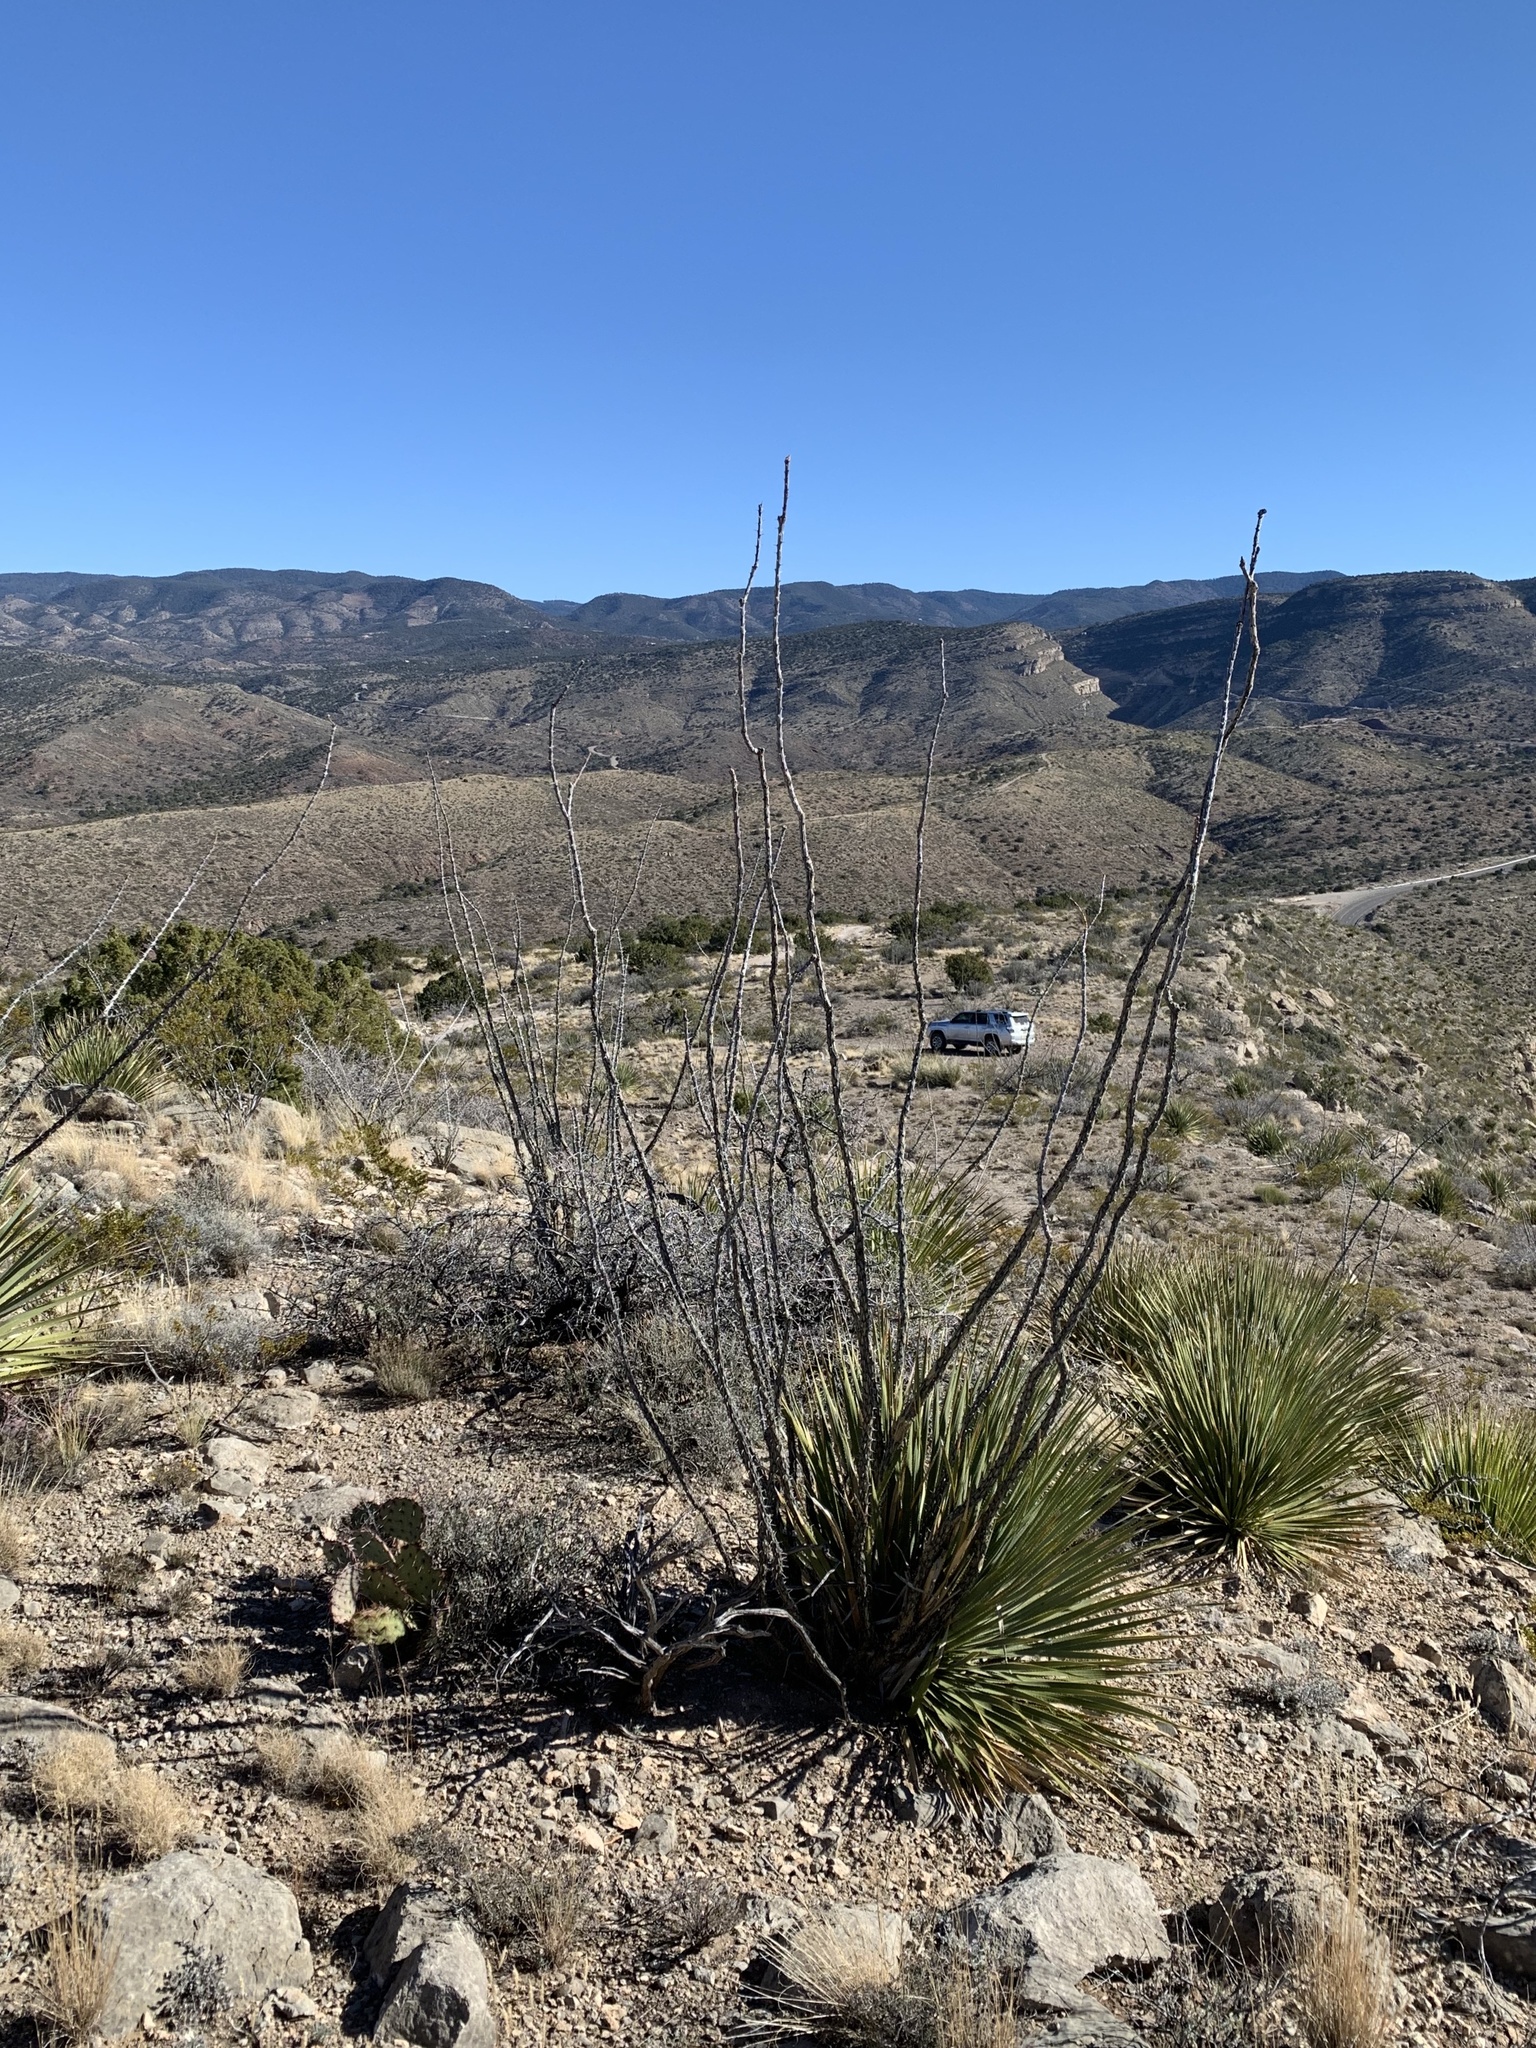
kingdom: Plantae
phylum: Tracheophyta
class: Magnoliopsida
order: Ericales
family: Fouquieriaceae
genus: Fouquieria
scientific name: Fouquieria splendens
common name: Vine-cactus
